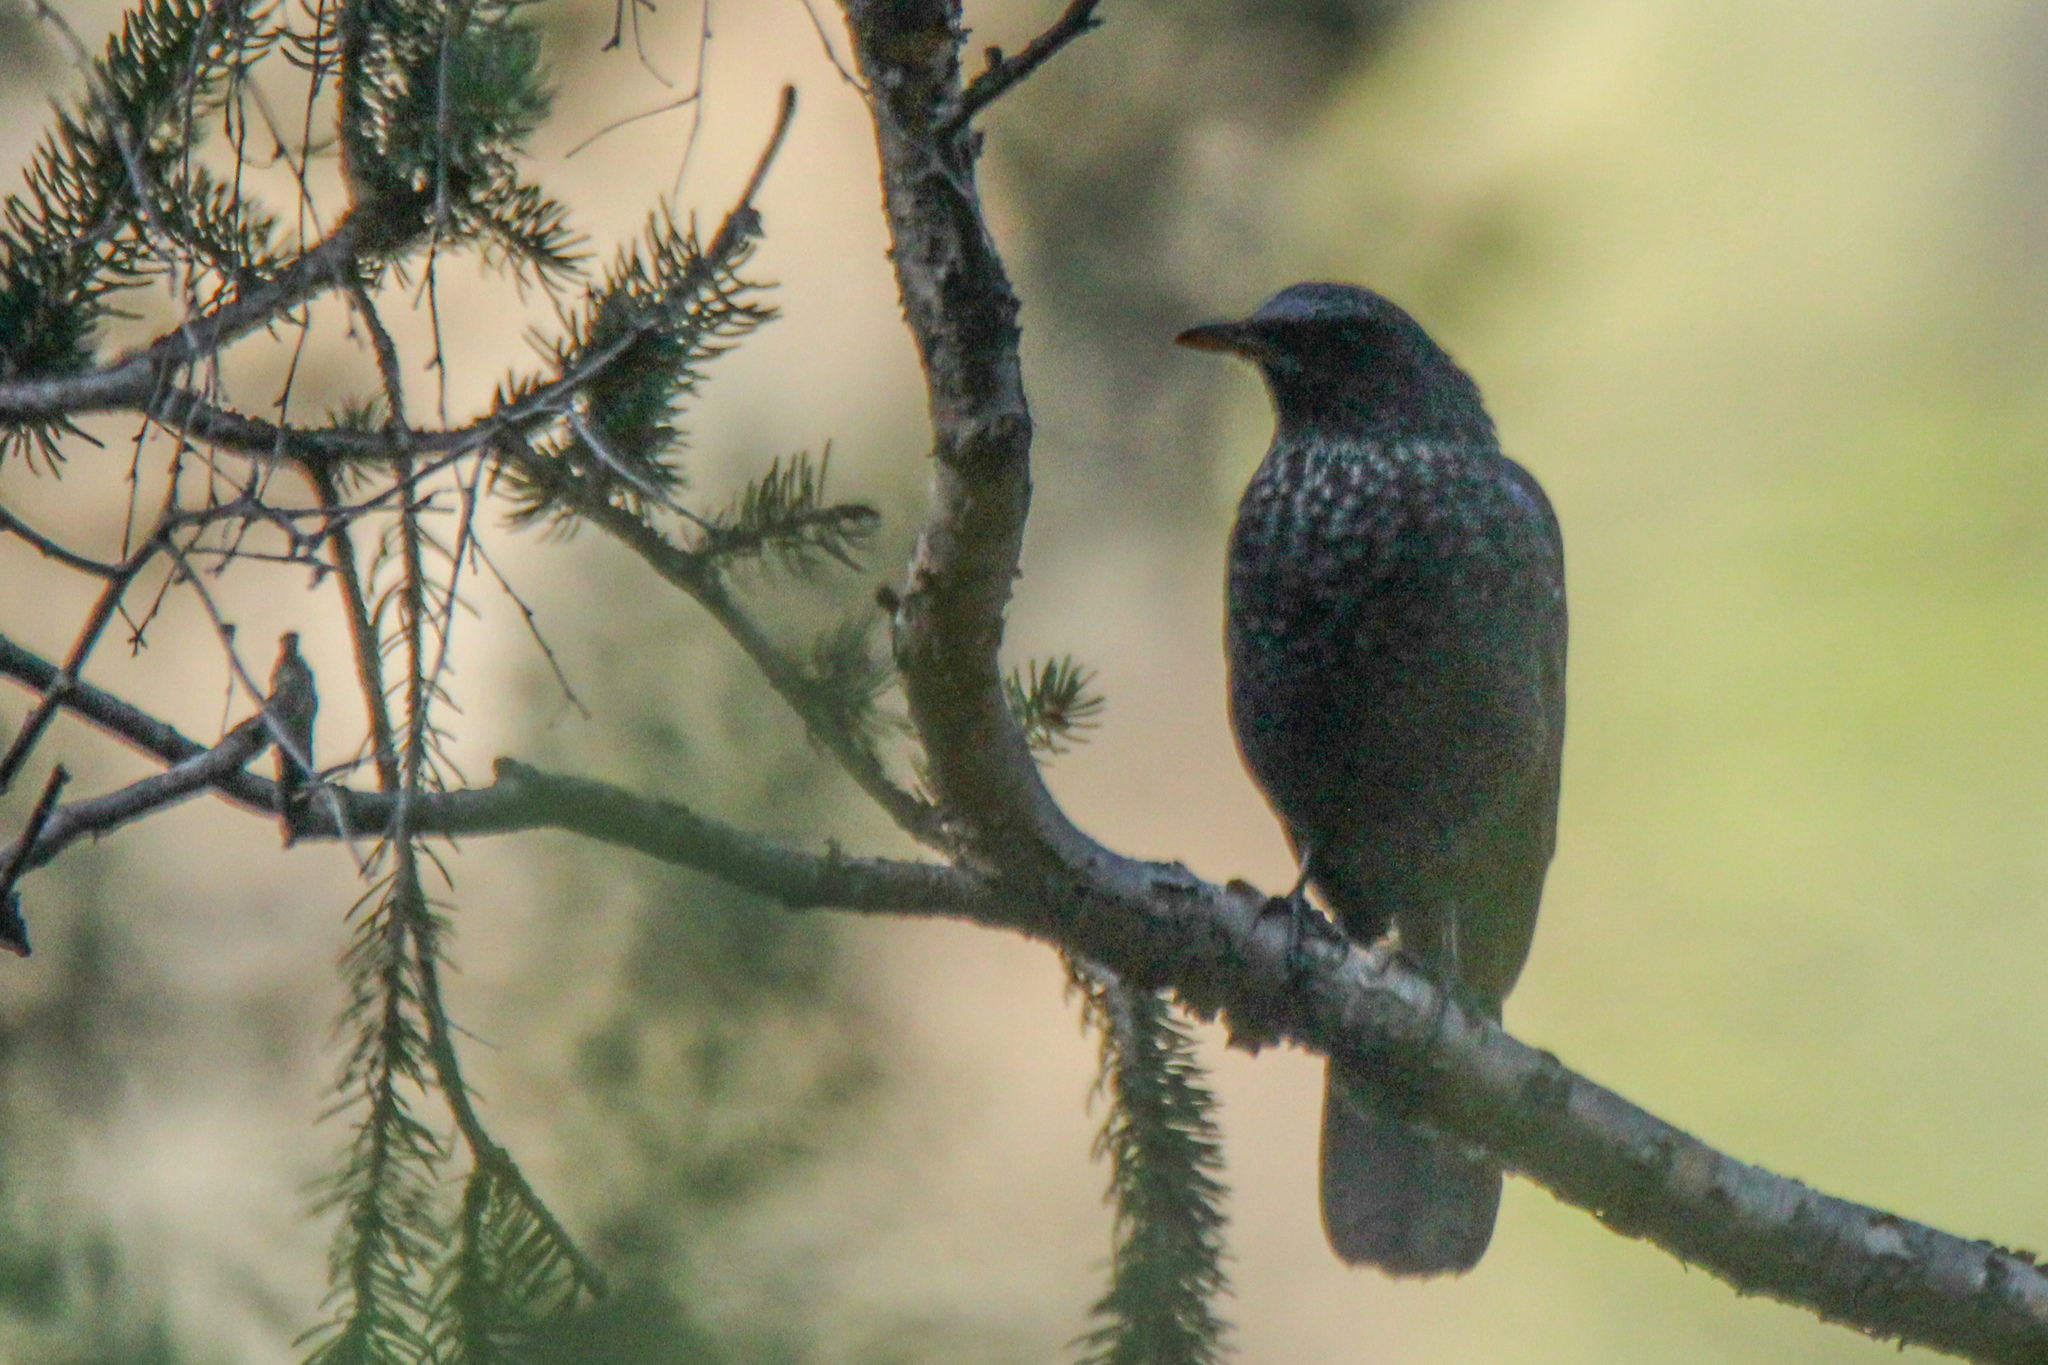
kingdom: Animalia
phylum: Chordata
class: Aves
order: Passeriformes
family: Muscicapidae
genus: Myophonus
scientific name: Myophonus caeruleus
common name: Blue whistling-thrush
